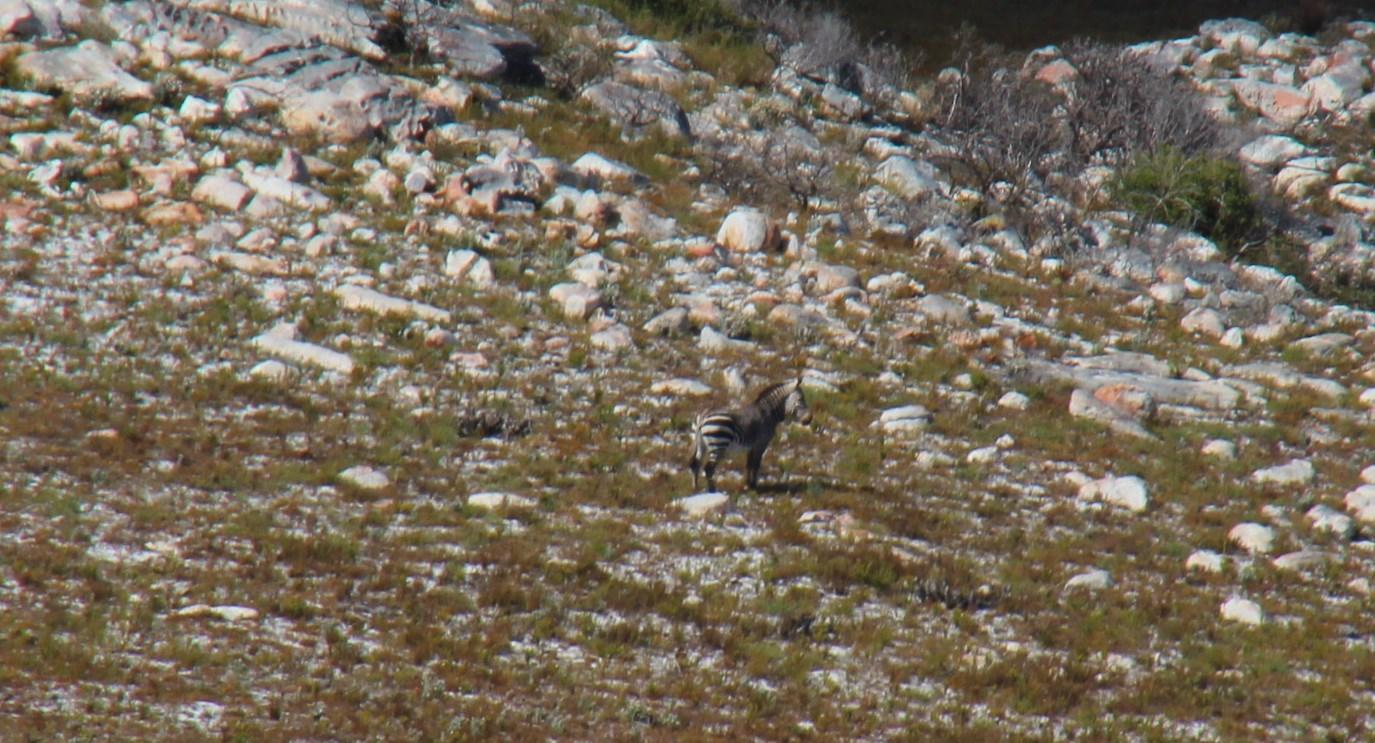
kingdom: Animalia
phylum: Chordata
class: Mammalia
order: Perissodactyla
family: Equidae
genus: Equus
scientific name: Equus zebra
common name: Mountain zebra
